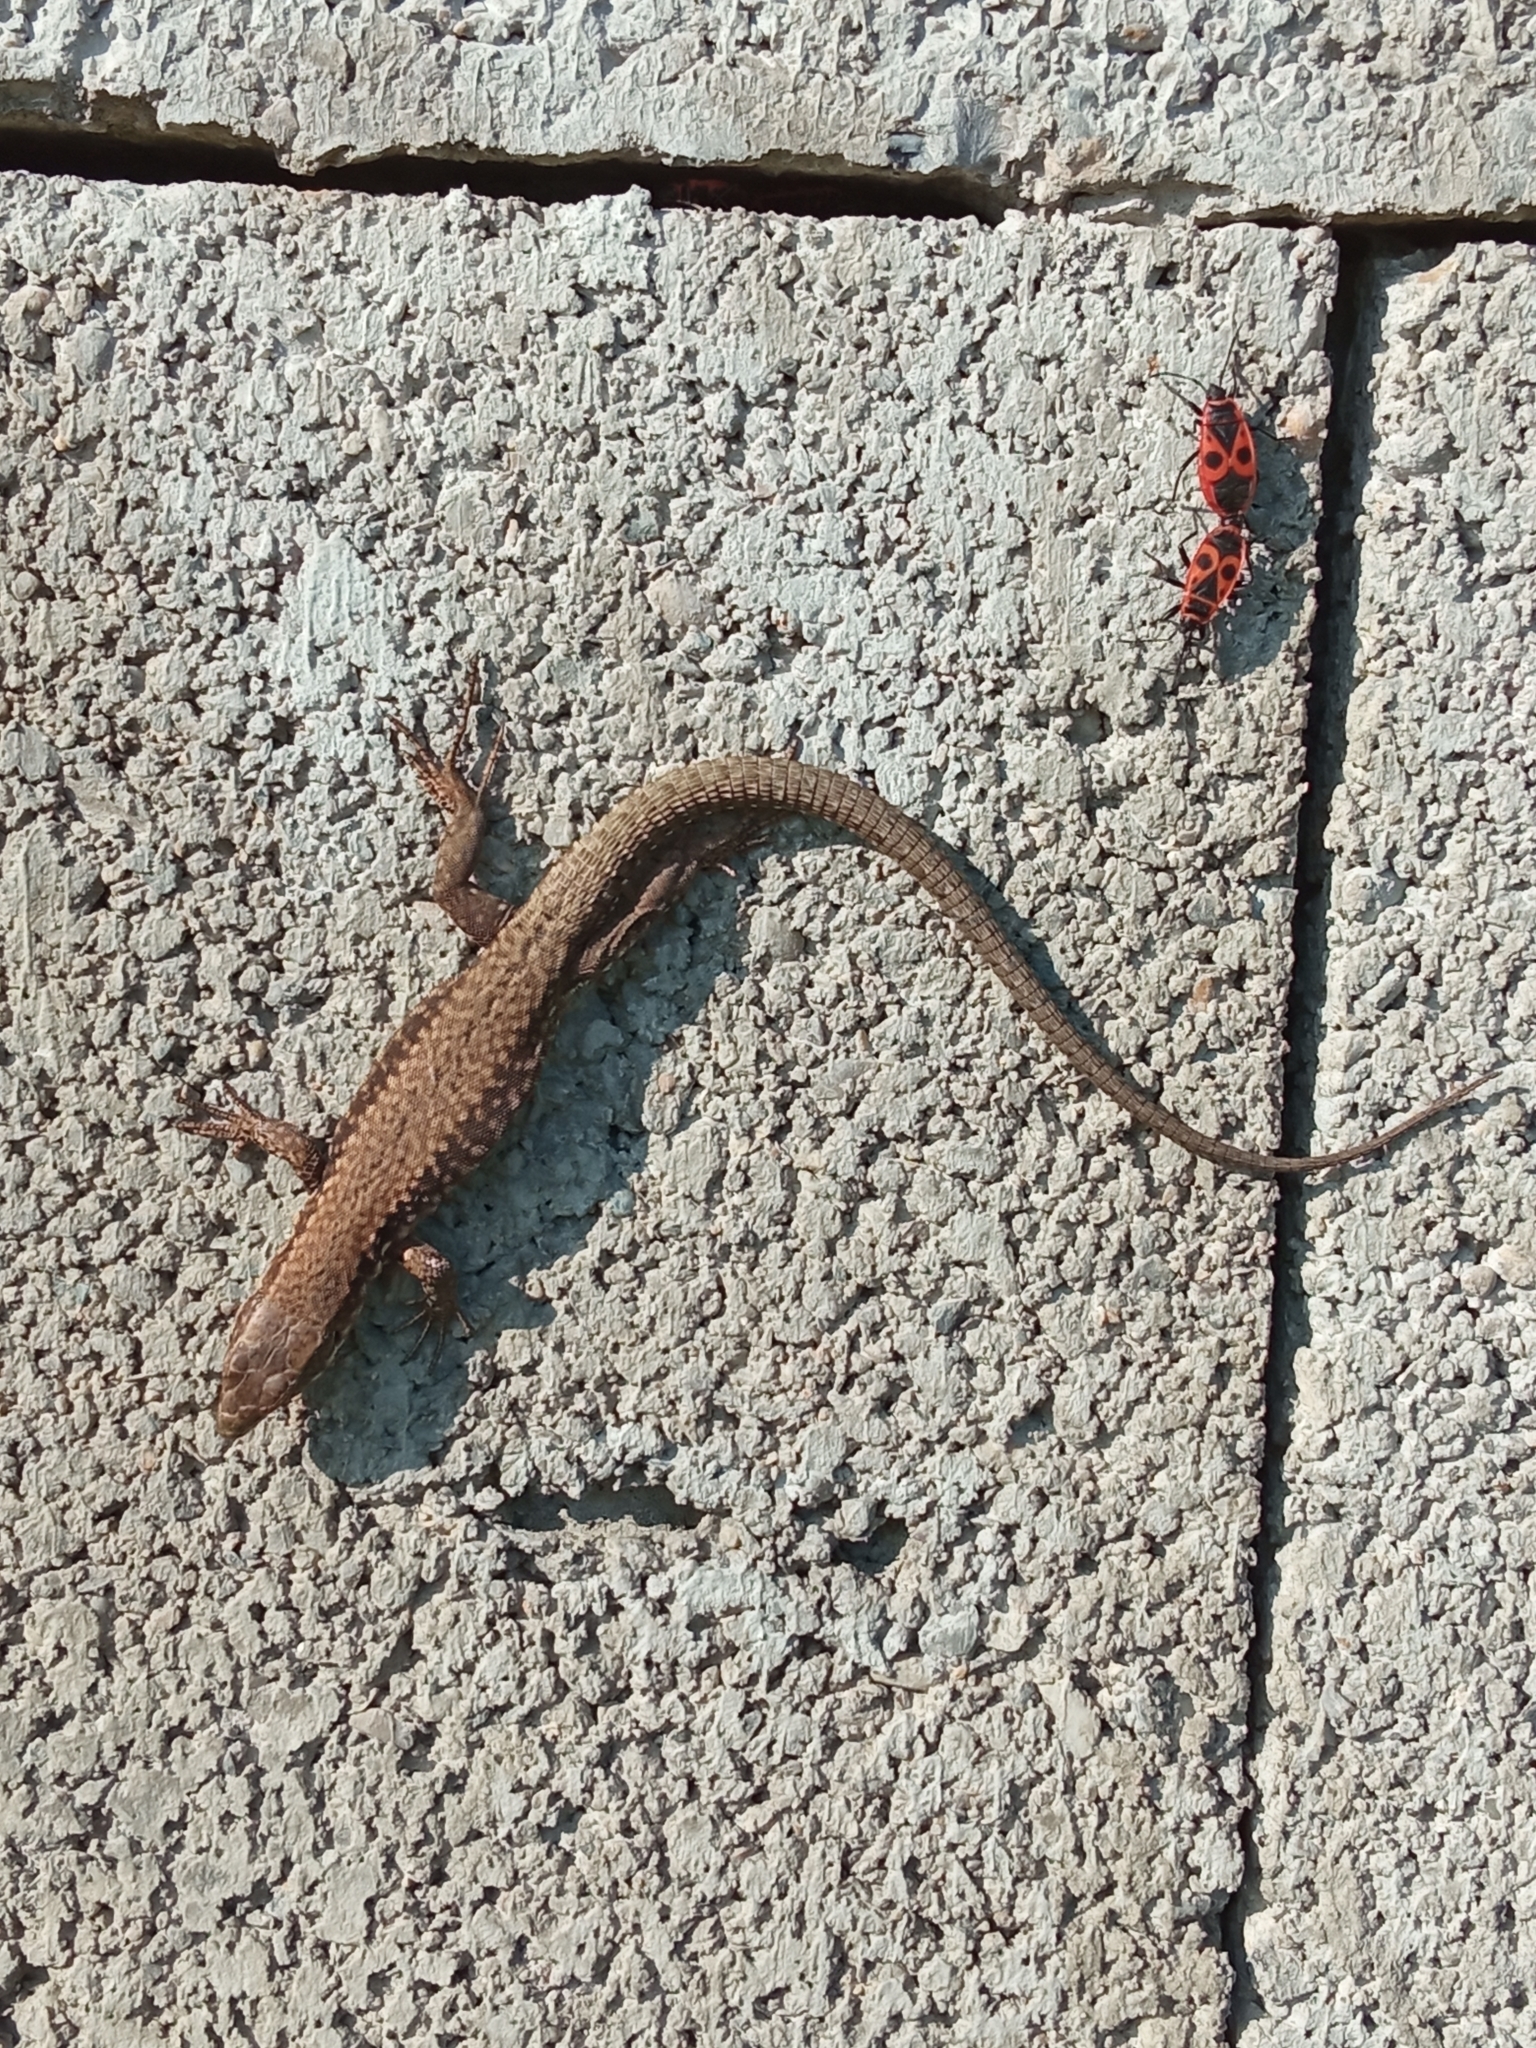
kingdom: Animalia
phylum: Chordata
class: Squamata
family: Lacertidae
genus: Podarcis
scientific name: Podarcis muralis
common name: Common wall lizard
